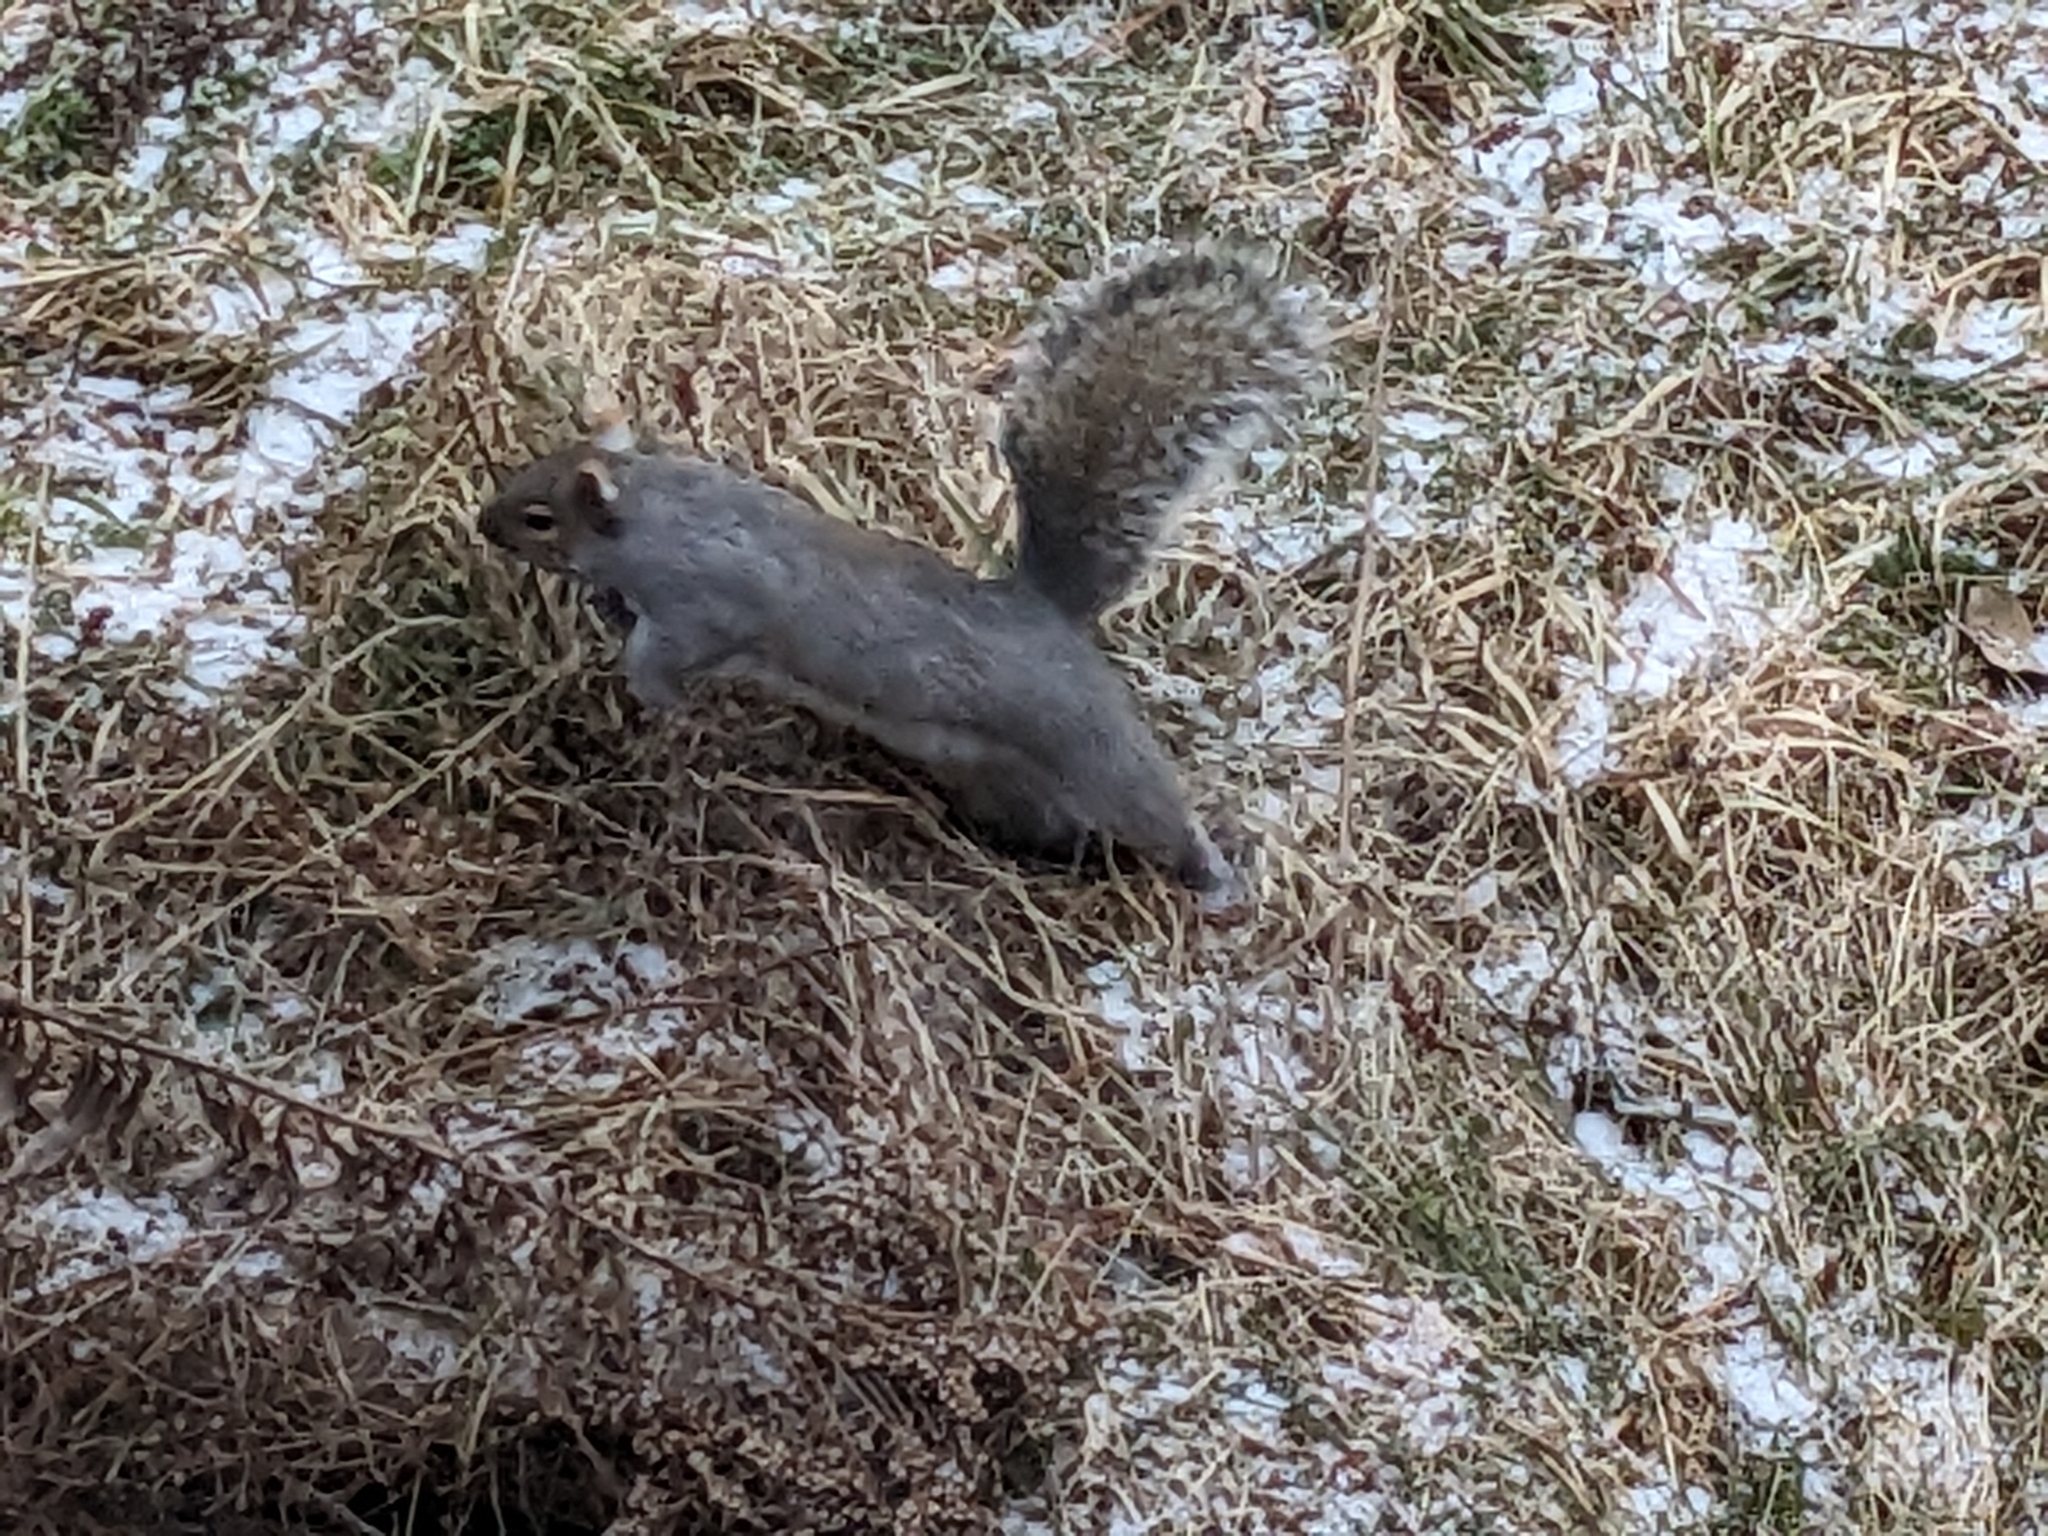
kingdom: Animalia
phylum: Chordata
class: Mammalia
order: Rodentia
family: Sciuridae
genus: Sciurus
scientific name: Sciurus carolinensis
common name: Eastern gray squirrel
